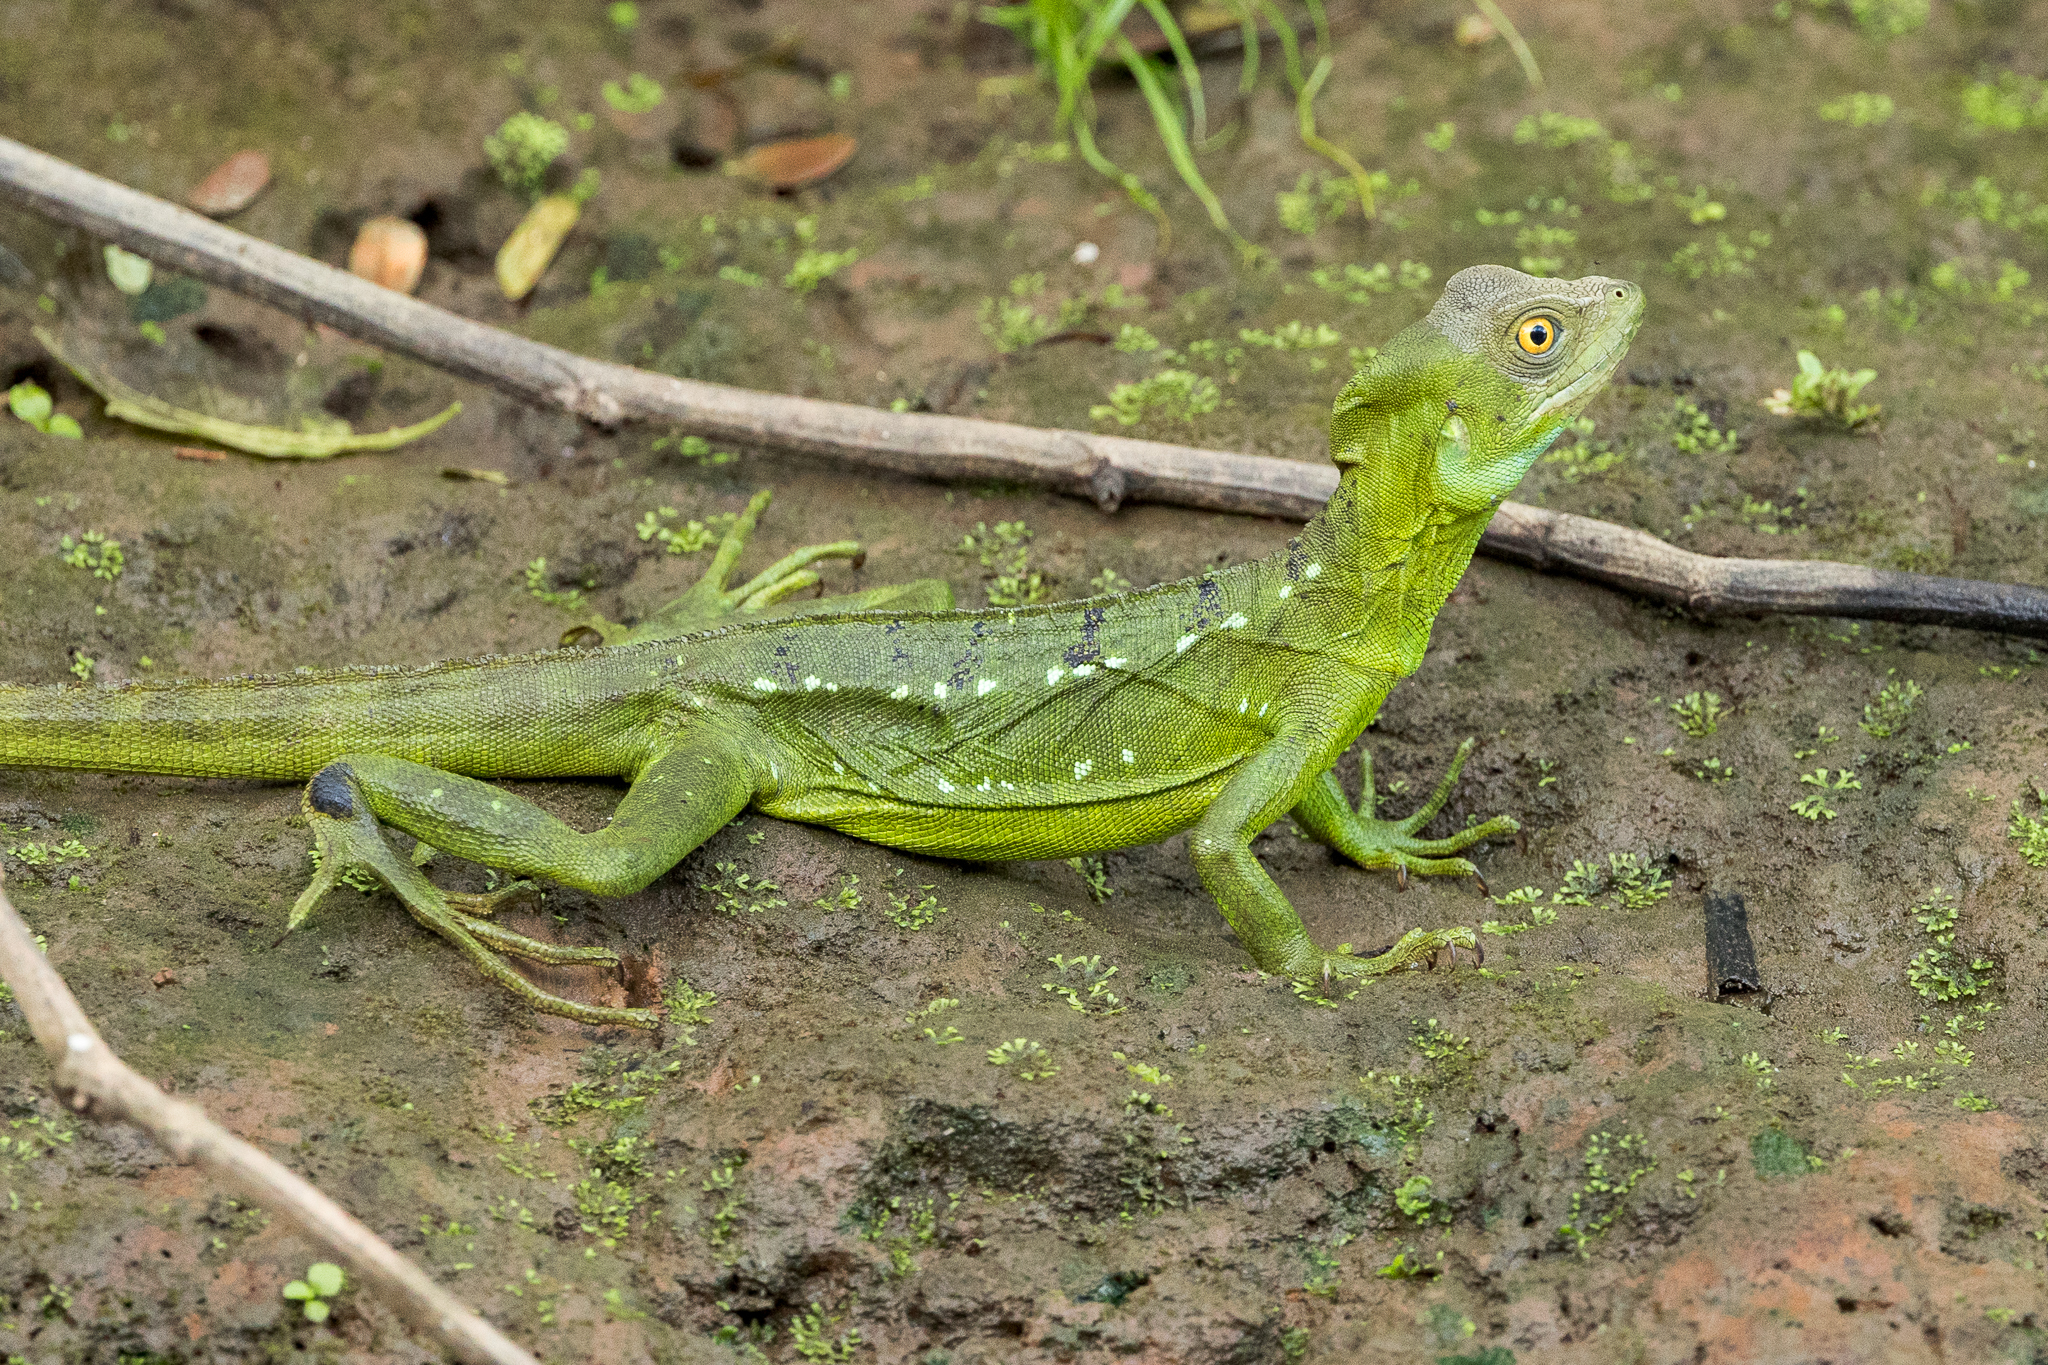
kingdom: Animalia
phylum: Chordata
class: Squamata
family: Corytophanidae
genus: Basiliscus
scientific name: Basiliscus plumifrons
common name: Green basilisk
